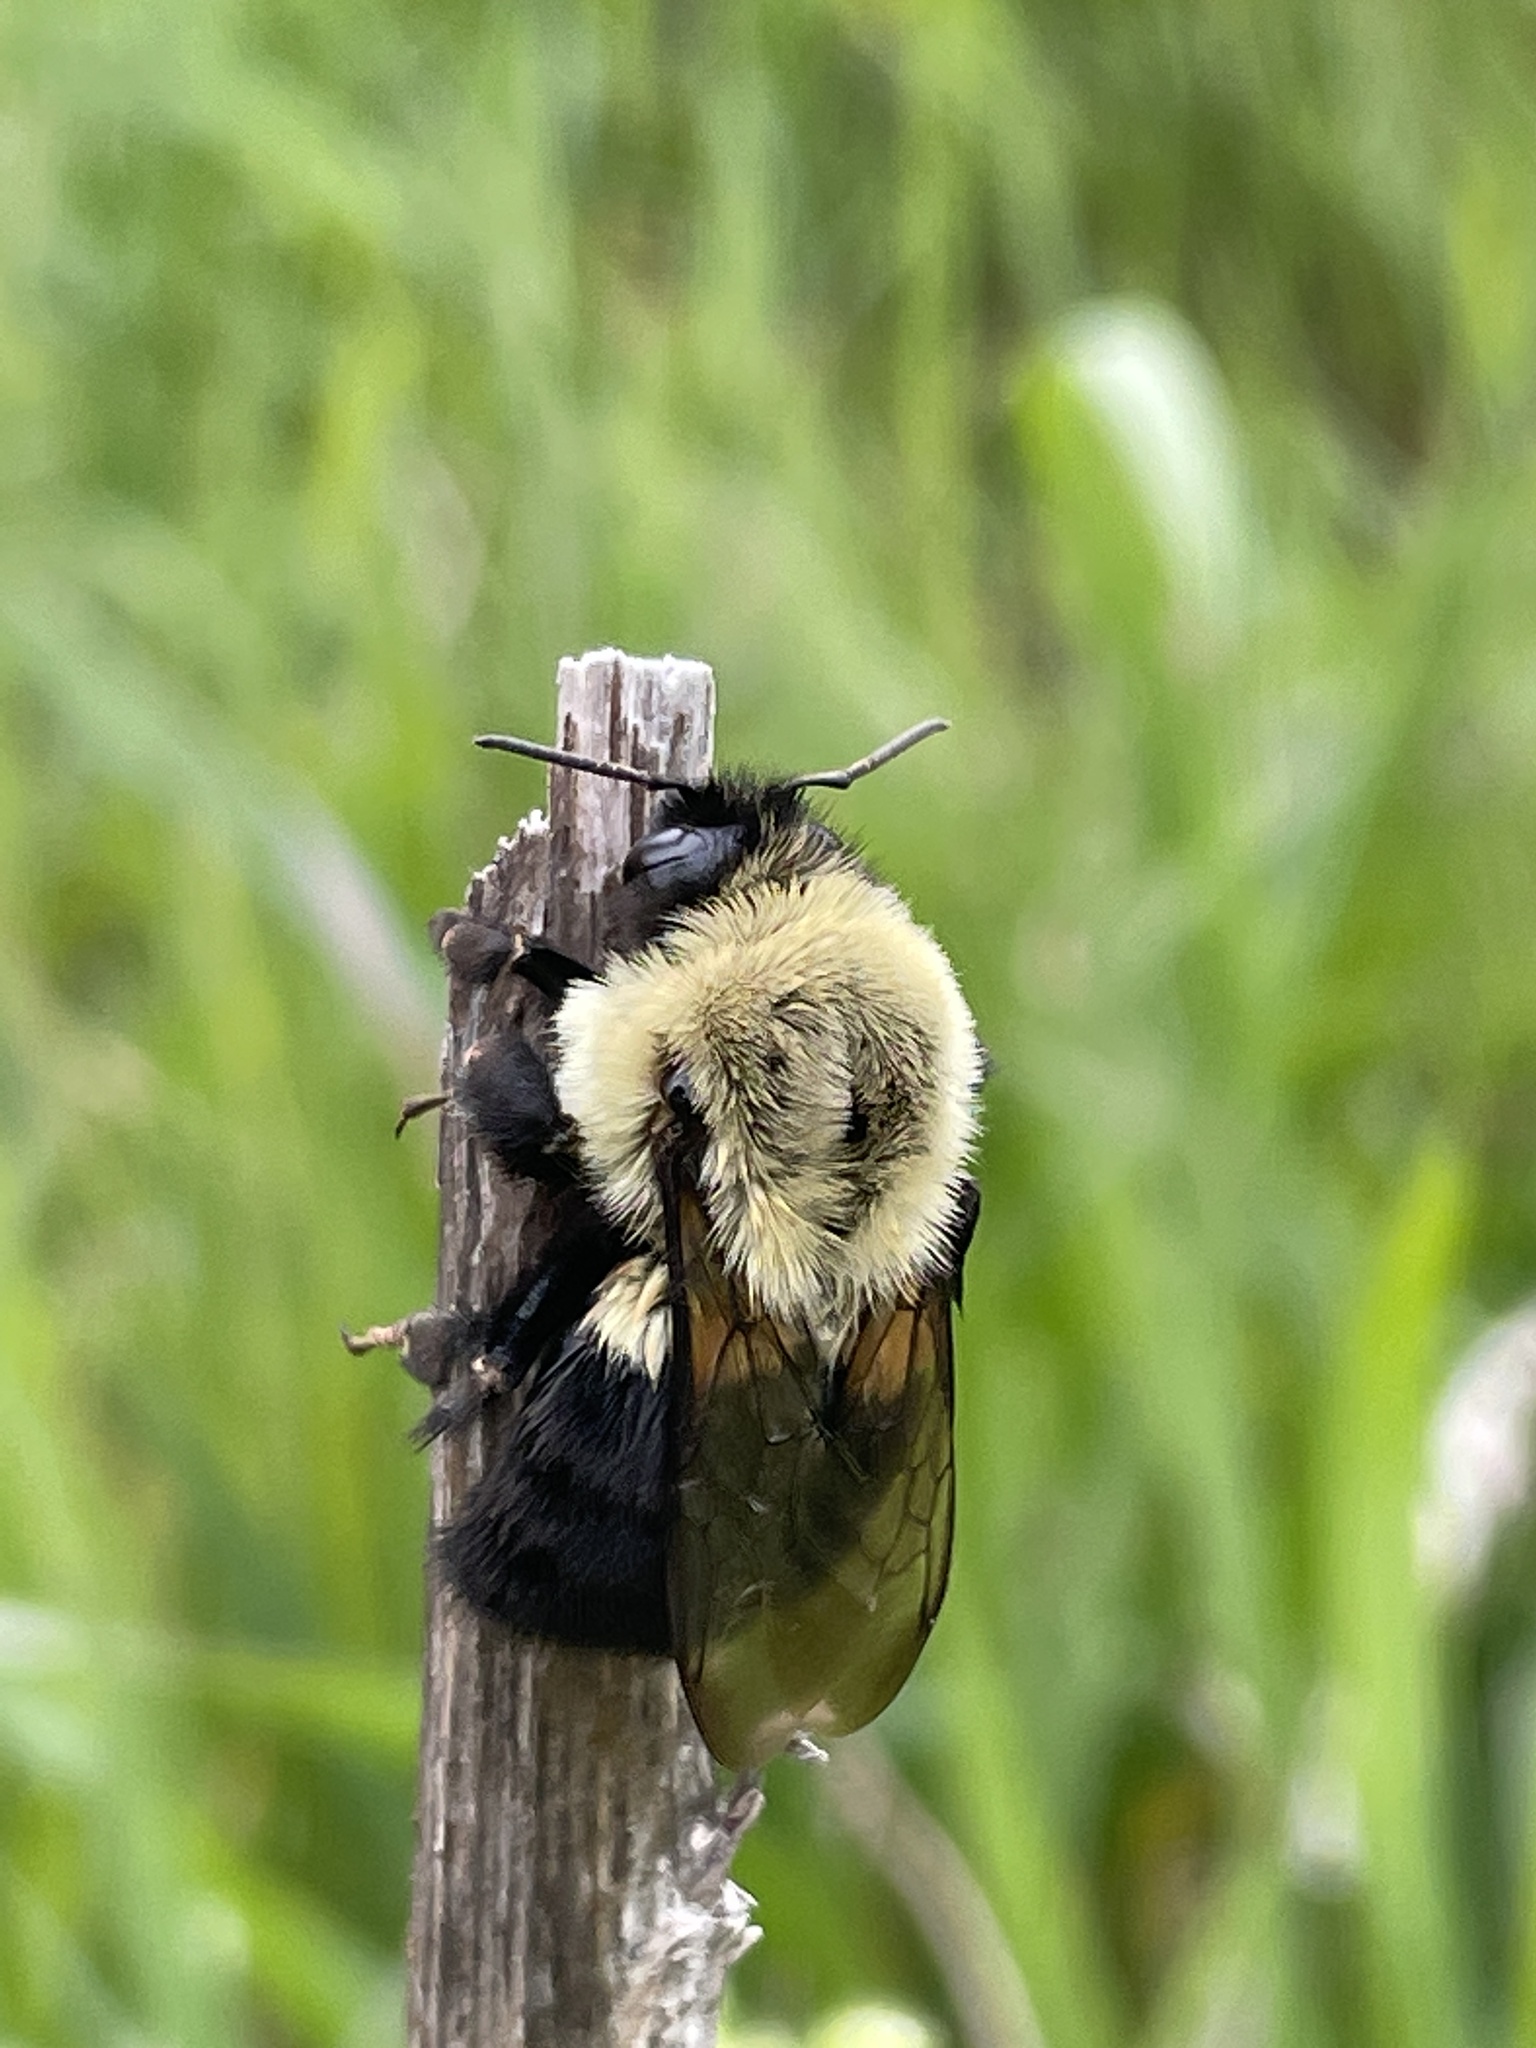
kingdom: Animalia
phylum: Arthropoda
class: Insecta
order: Hymenoptera
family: Apidae
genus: Bombus
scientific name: Bombus impatiens
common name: Common eastern bumble bee
